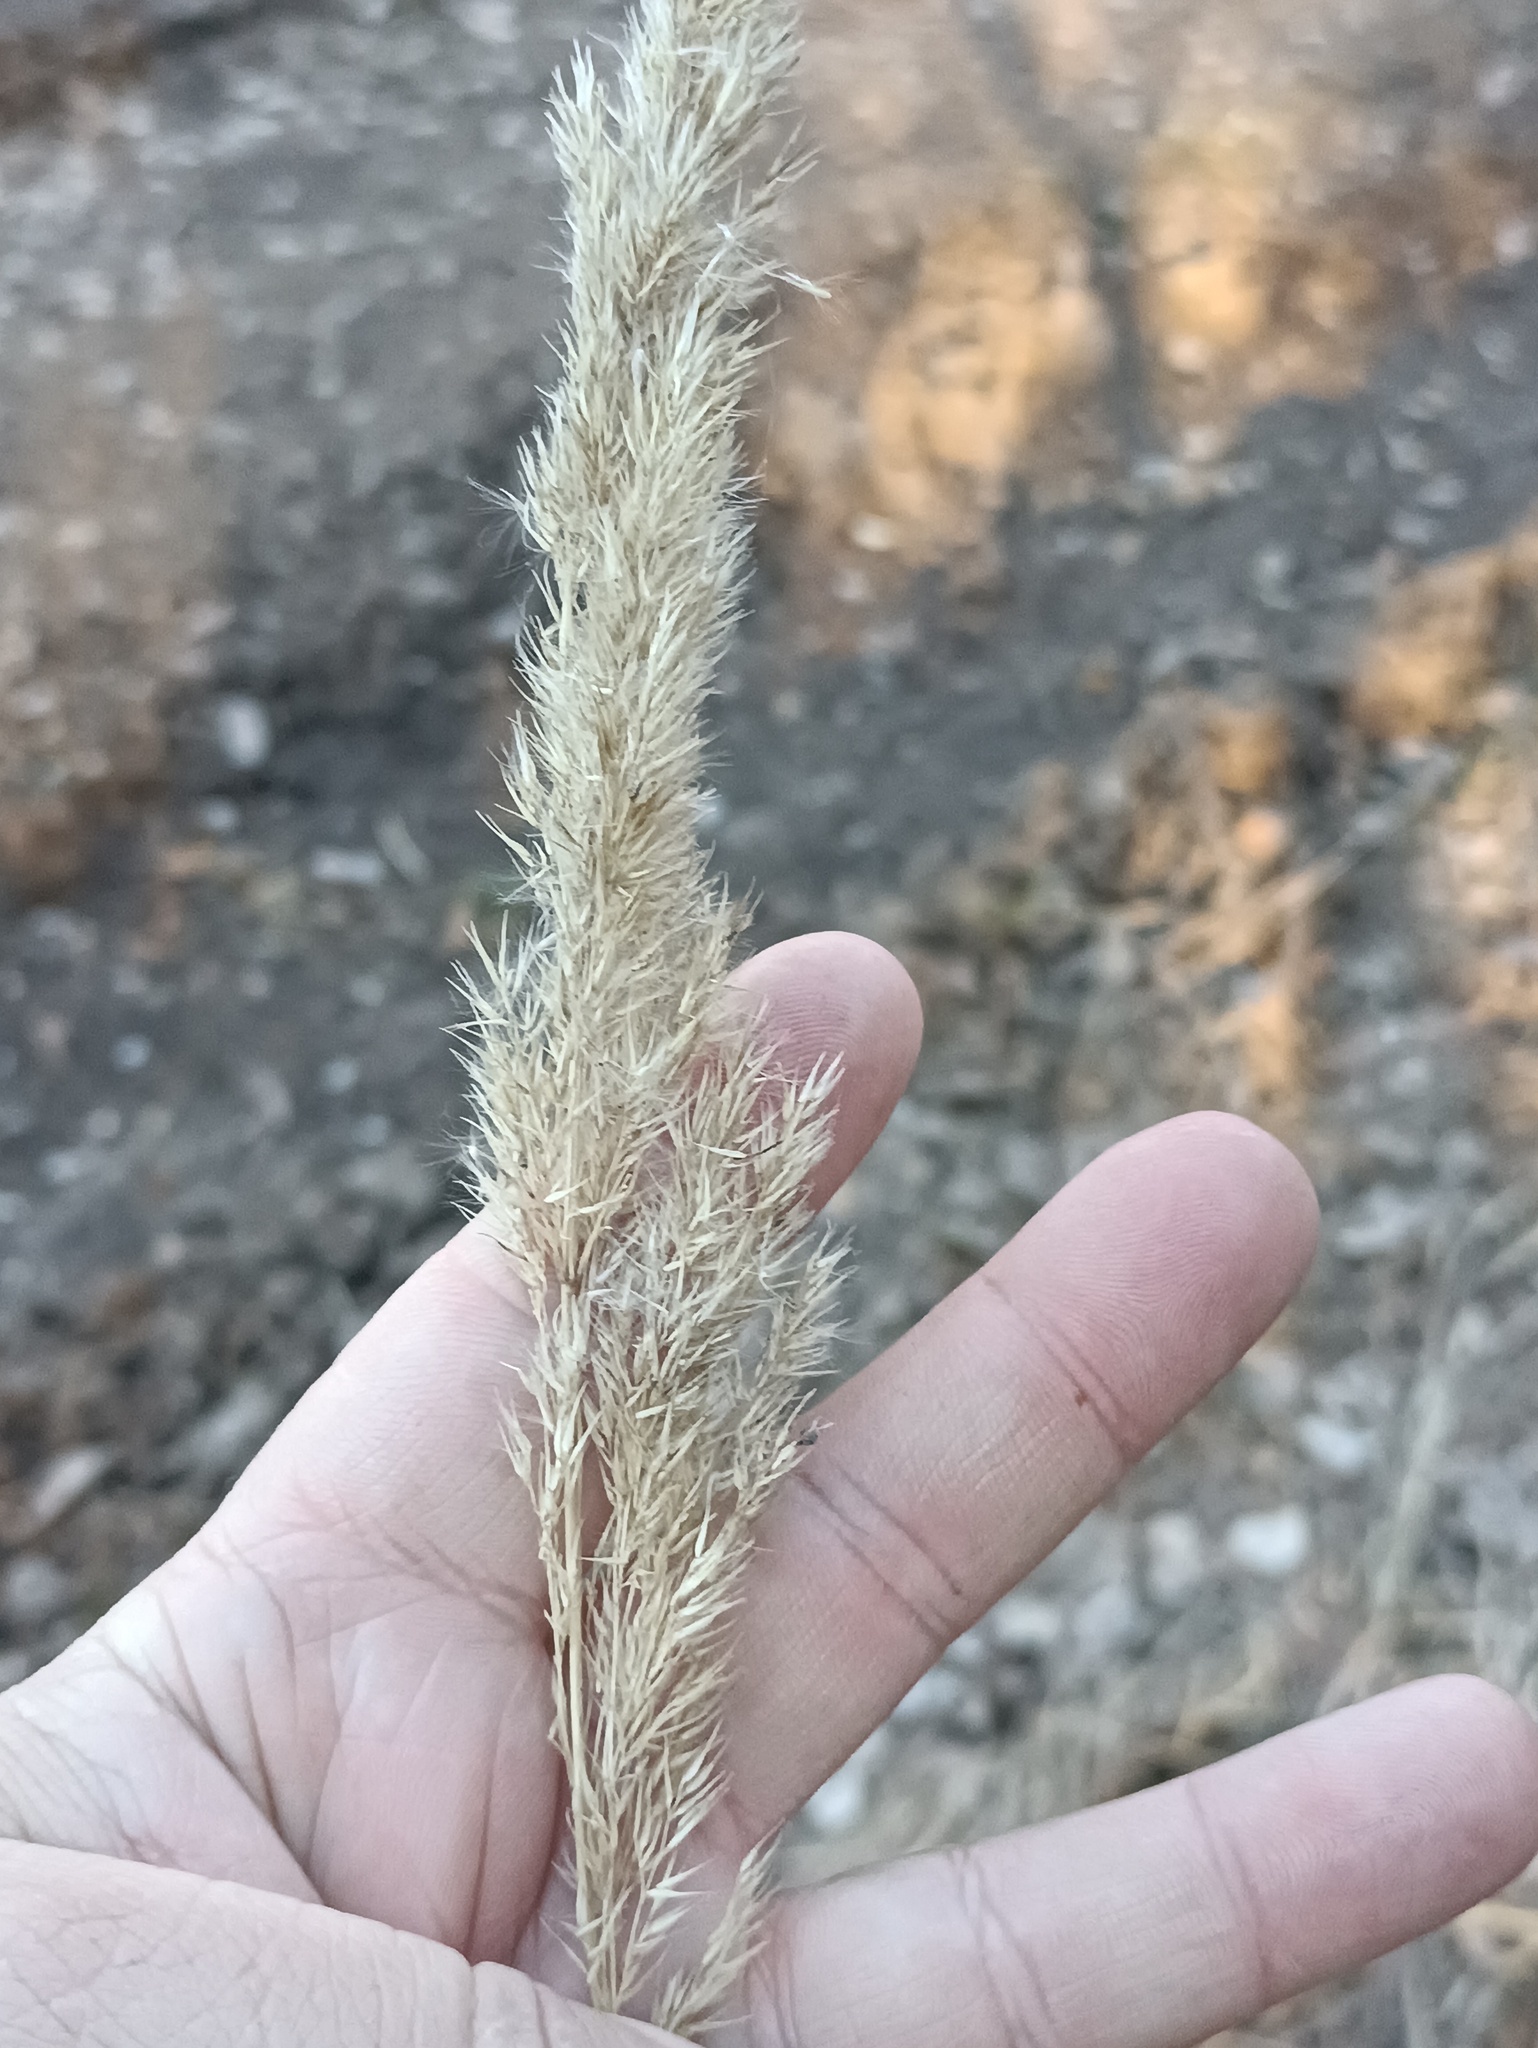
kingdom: Plantae
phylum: Tracheophyta
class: Liliopsida
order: Poales
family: Poaceae
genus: Calamagrostis
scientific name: Calamagrostis epigejos
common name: Wood small-reed
